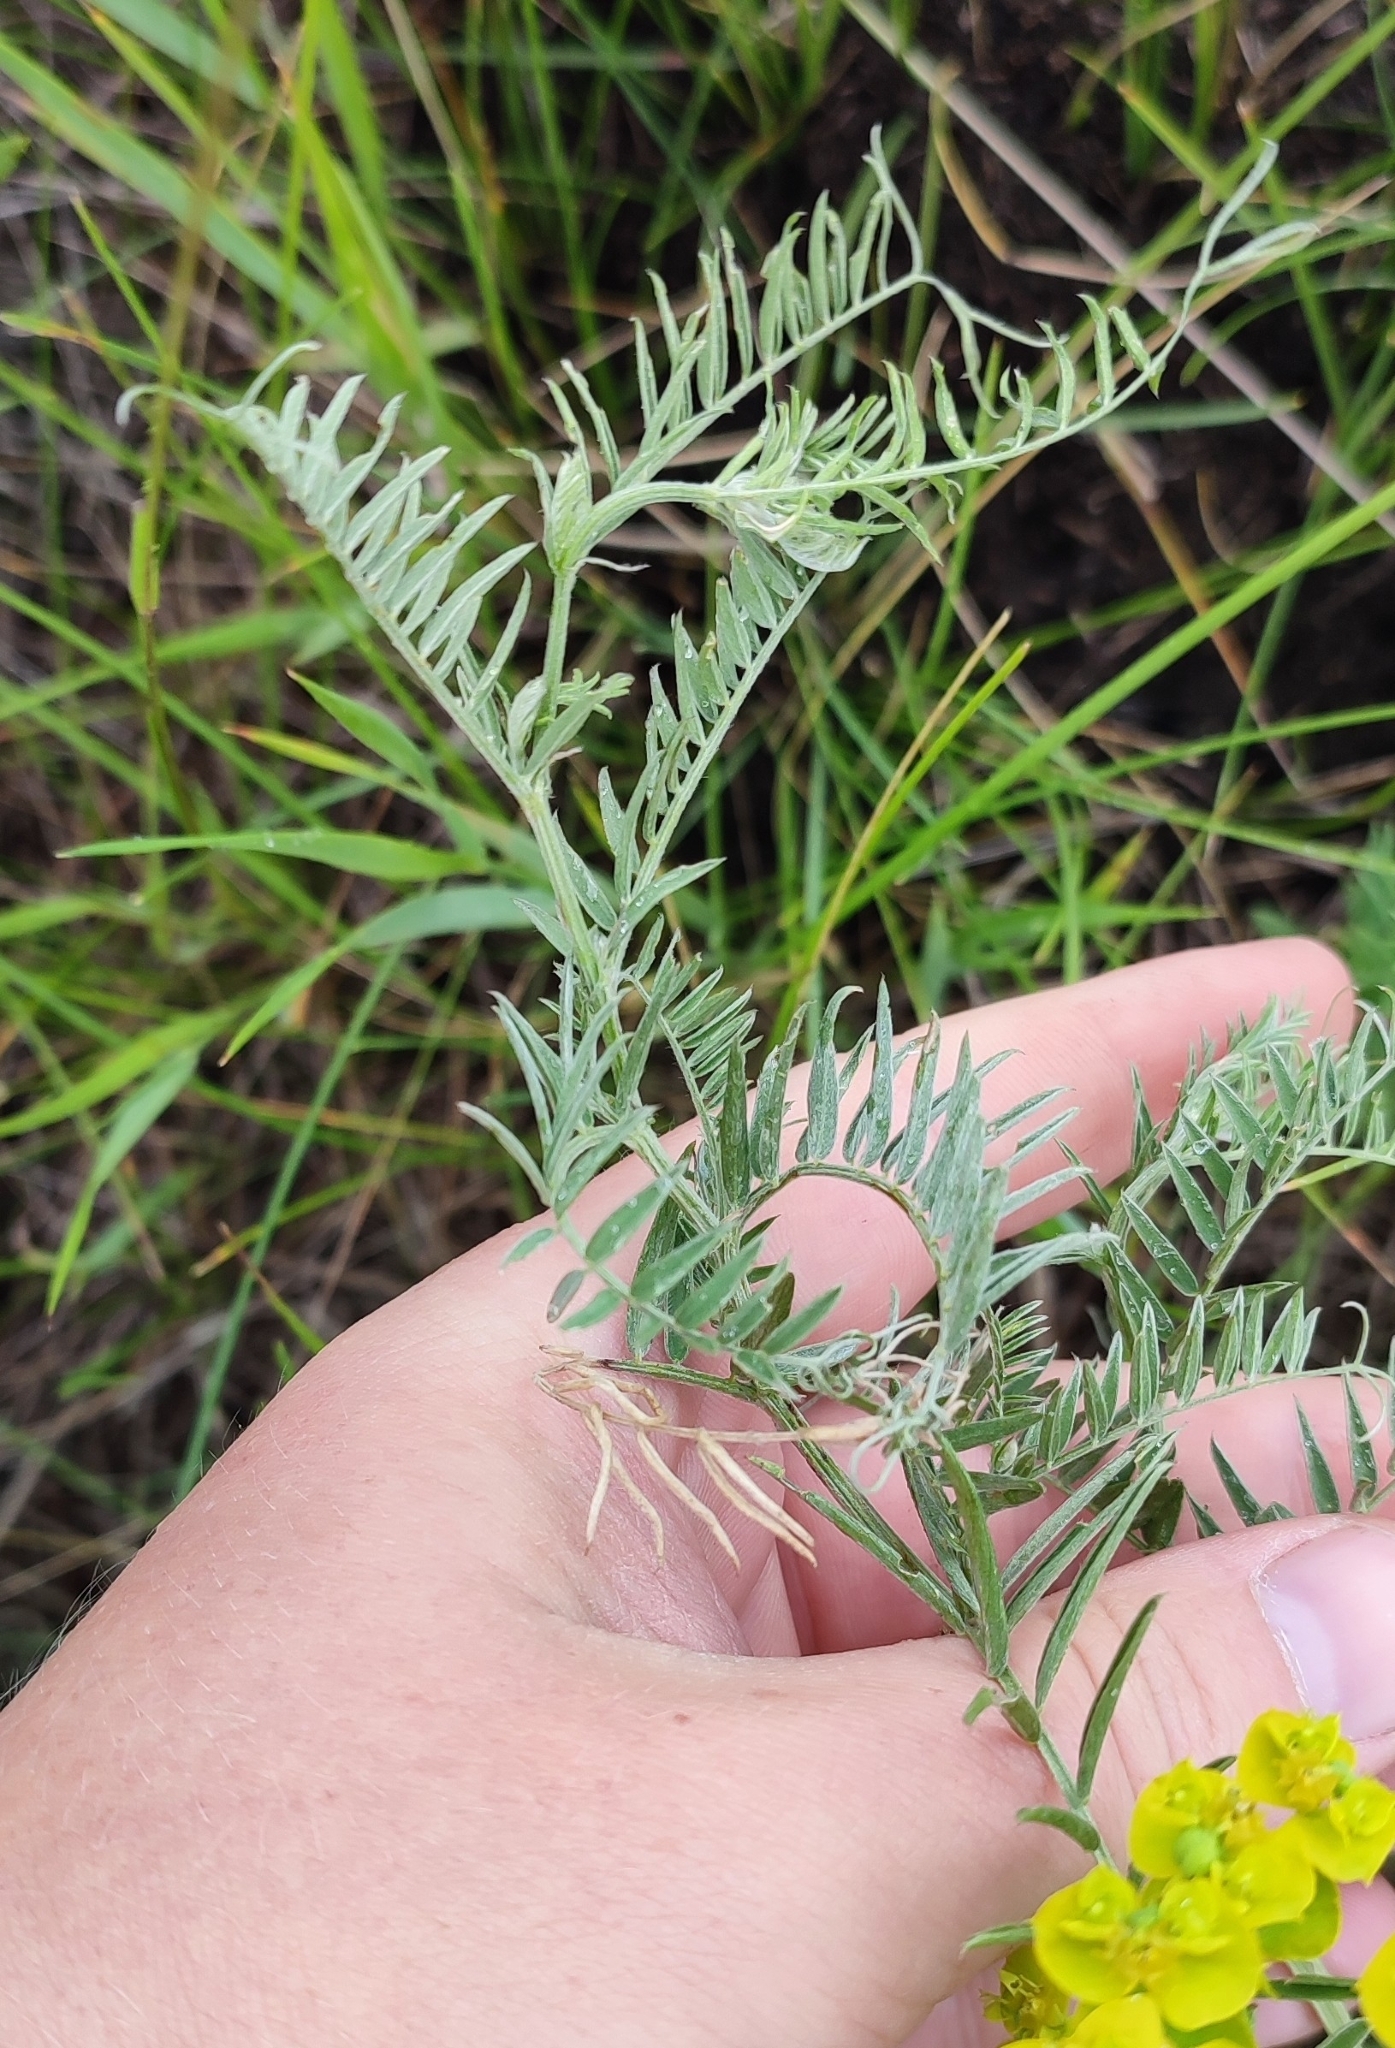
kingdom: Plantae
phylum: Tracheophyta
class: Magnoliopsida
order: Fabales
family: Fabaceae
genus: Vicia
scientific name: Vicia cracca
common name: Bird vetch
